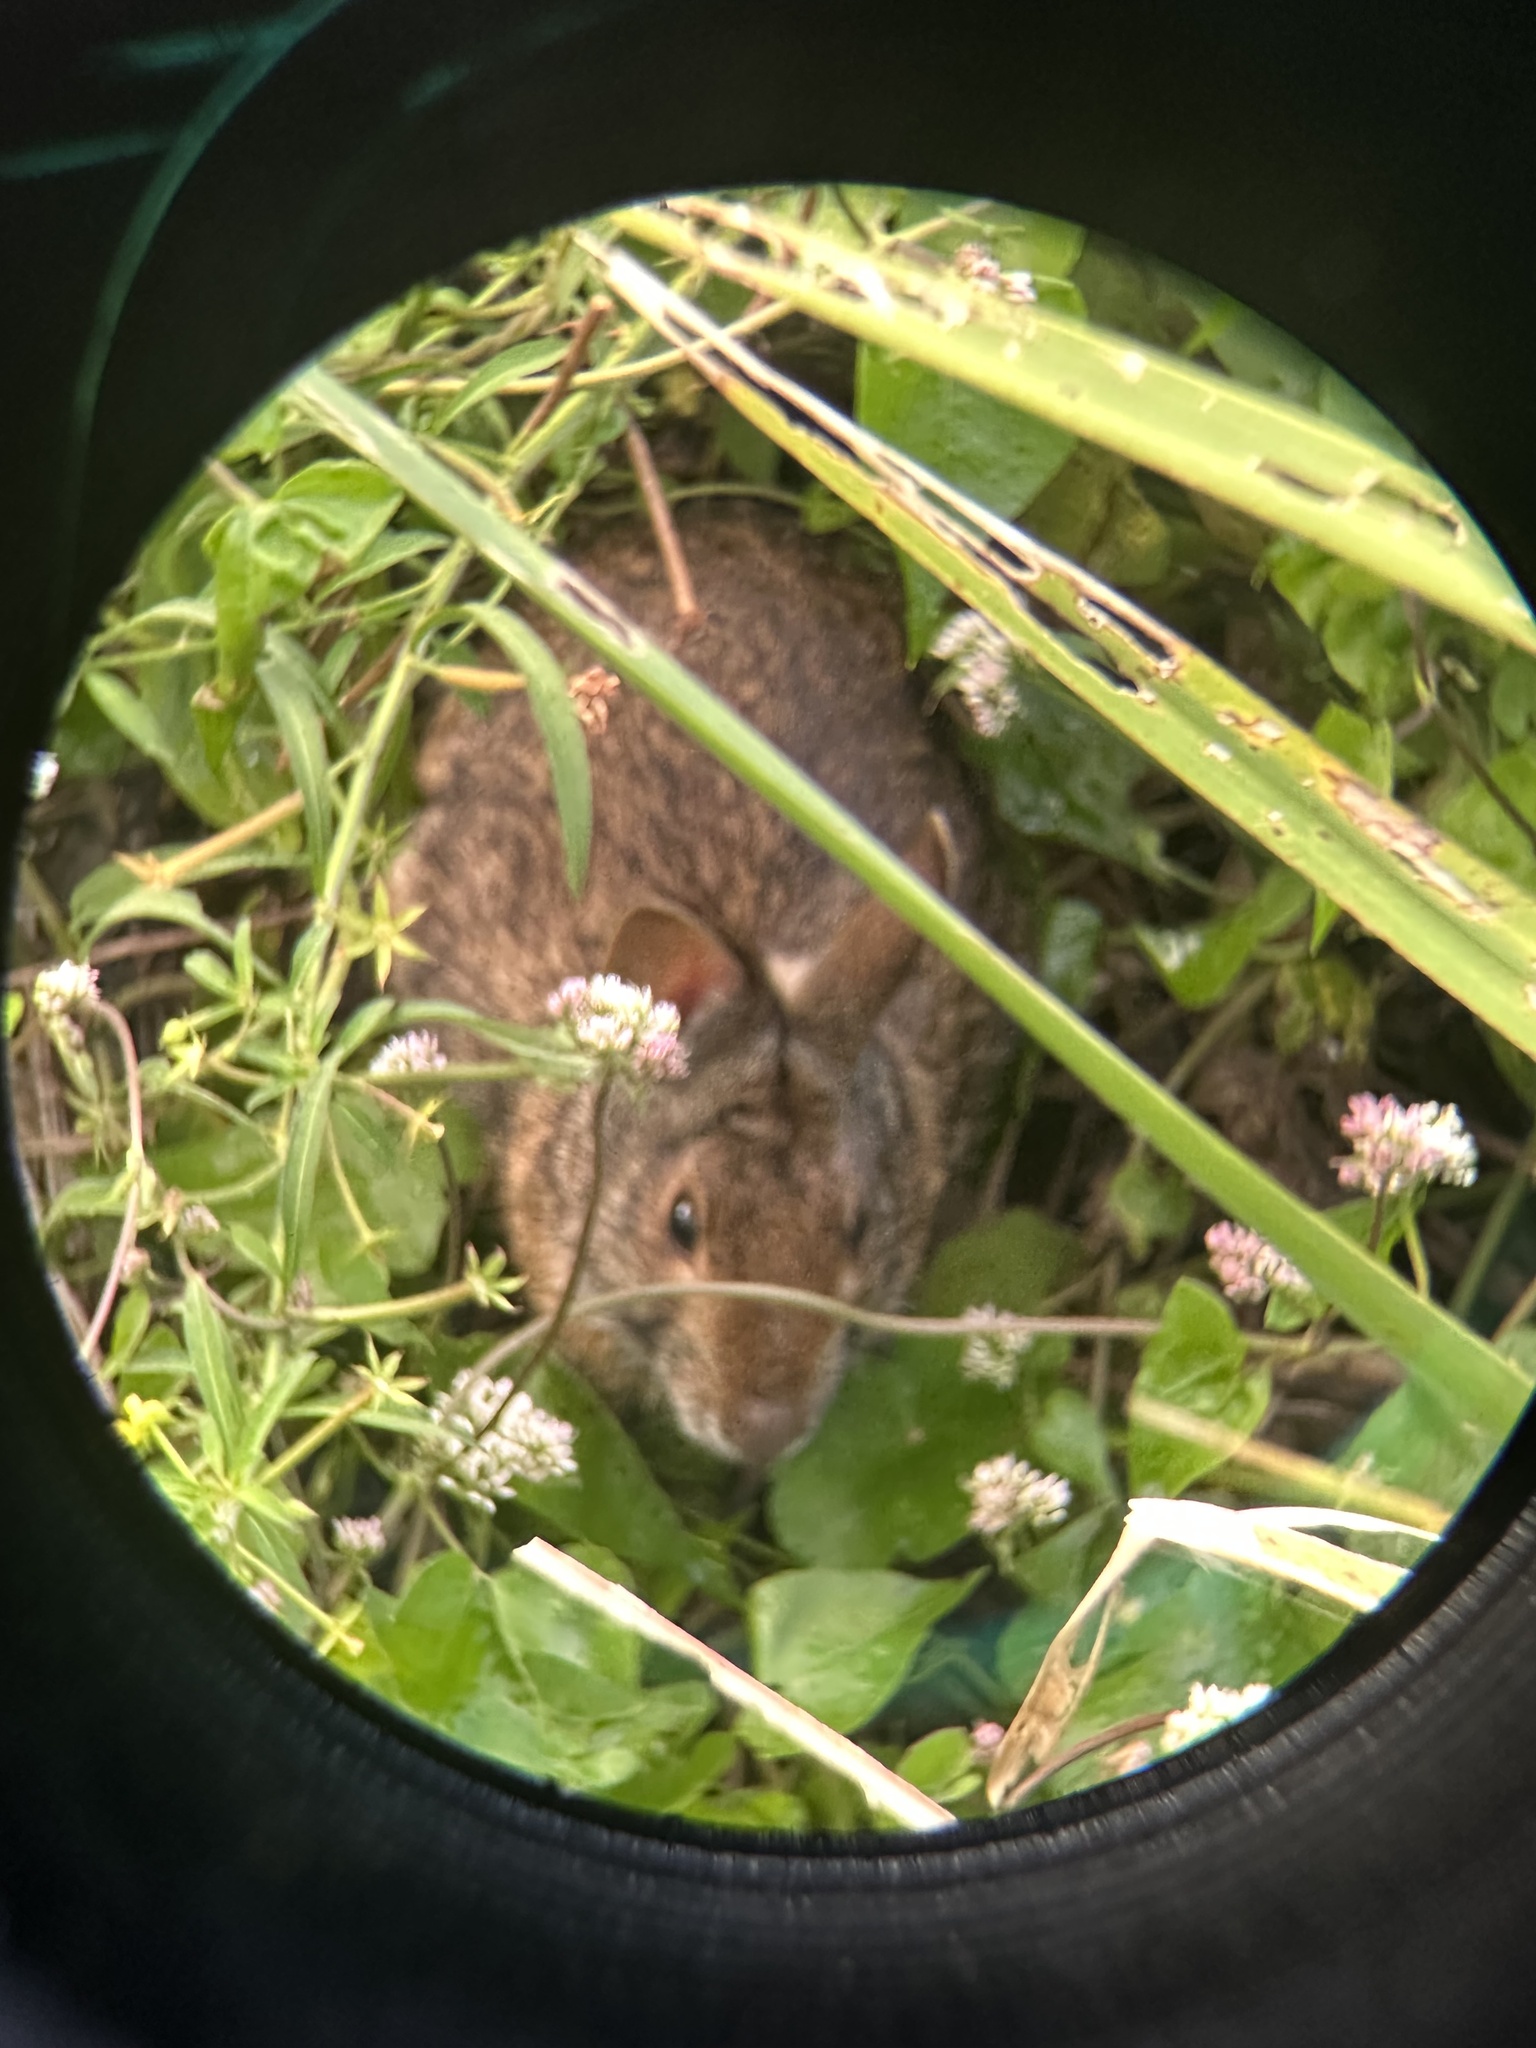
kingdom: Animalia
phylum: Chordata
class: Mammalia
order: Lagomorpha
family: Leporidae
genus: Sylvilagus
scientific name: Sylvilagus palustris
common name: Marsh rabbit
